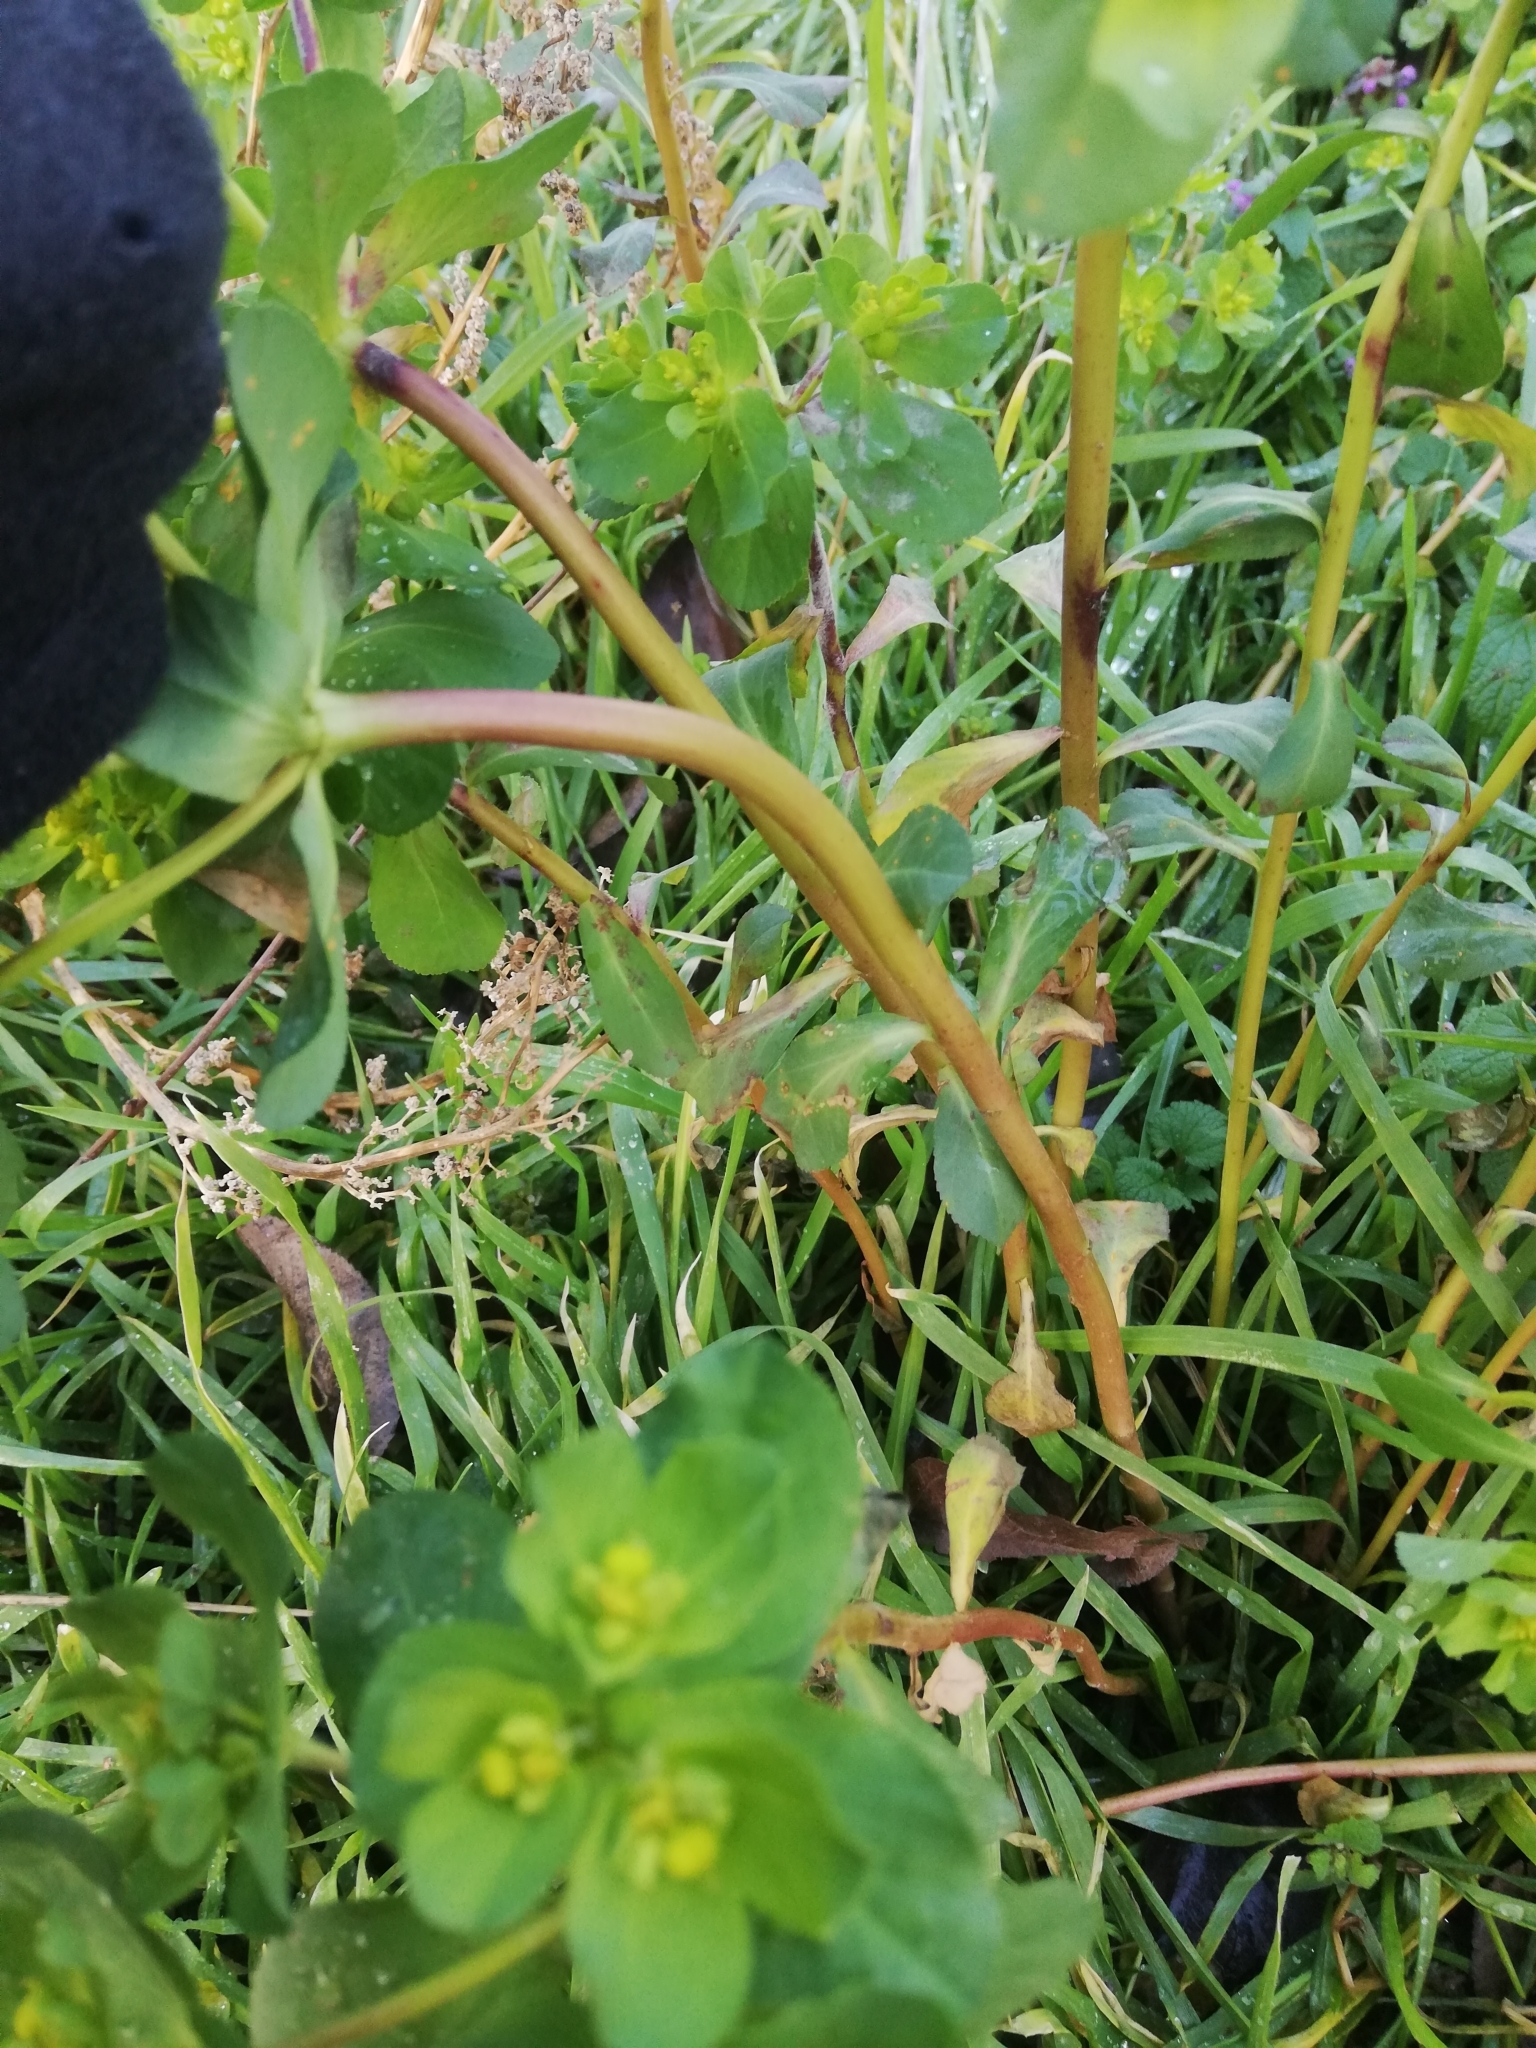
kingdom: Plantae
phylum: Tracheophyta
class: Magnoliopsida
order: Malpighiales
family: Euphorbiaceae
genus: Euphorbia
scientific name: Euphorbia helioscopia
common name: Sun spurge
